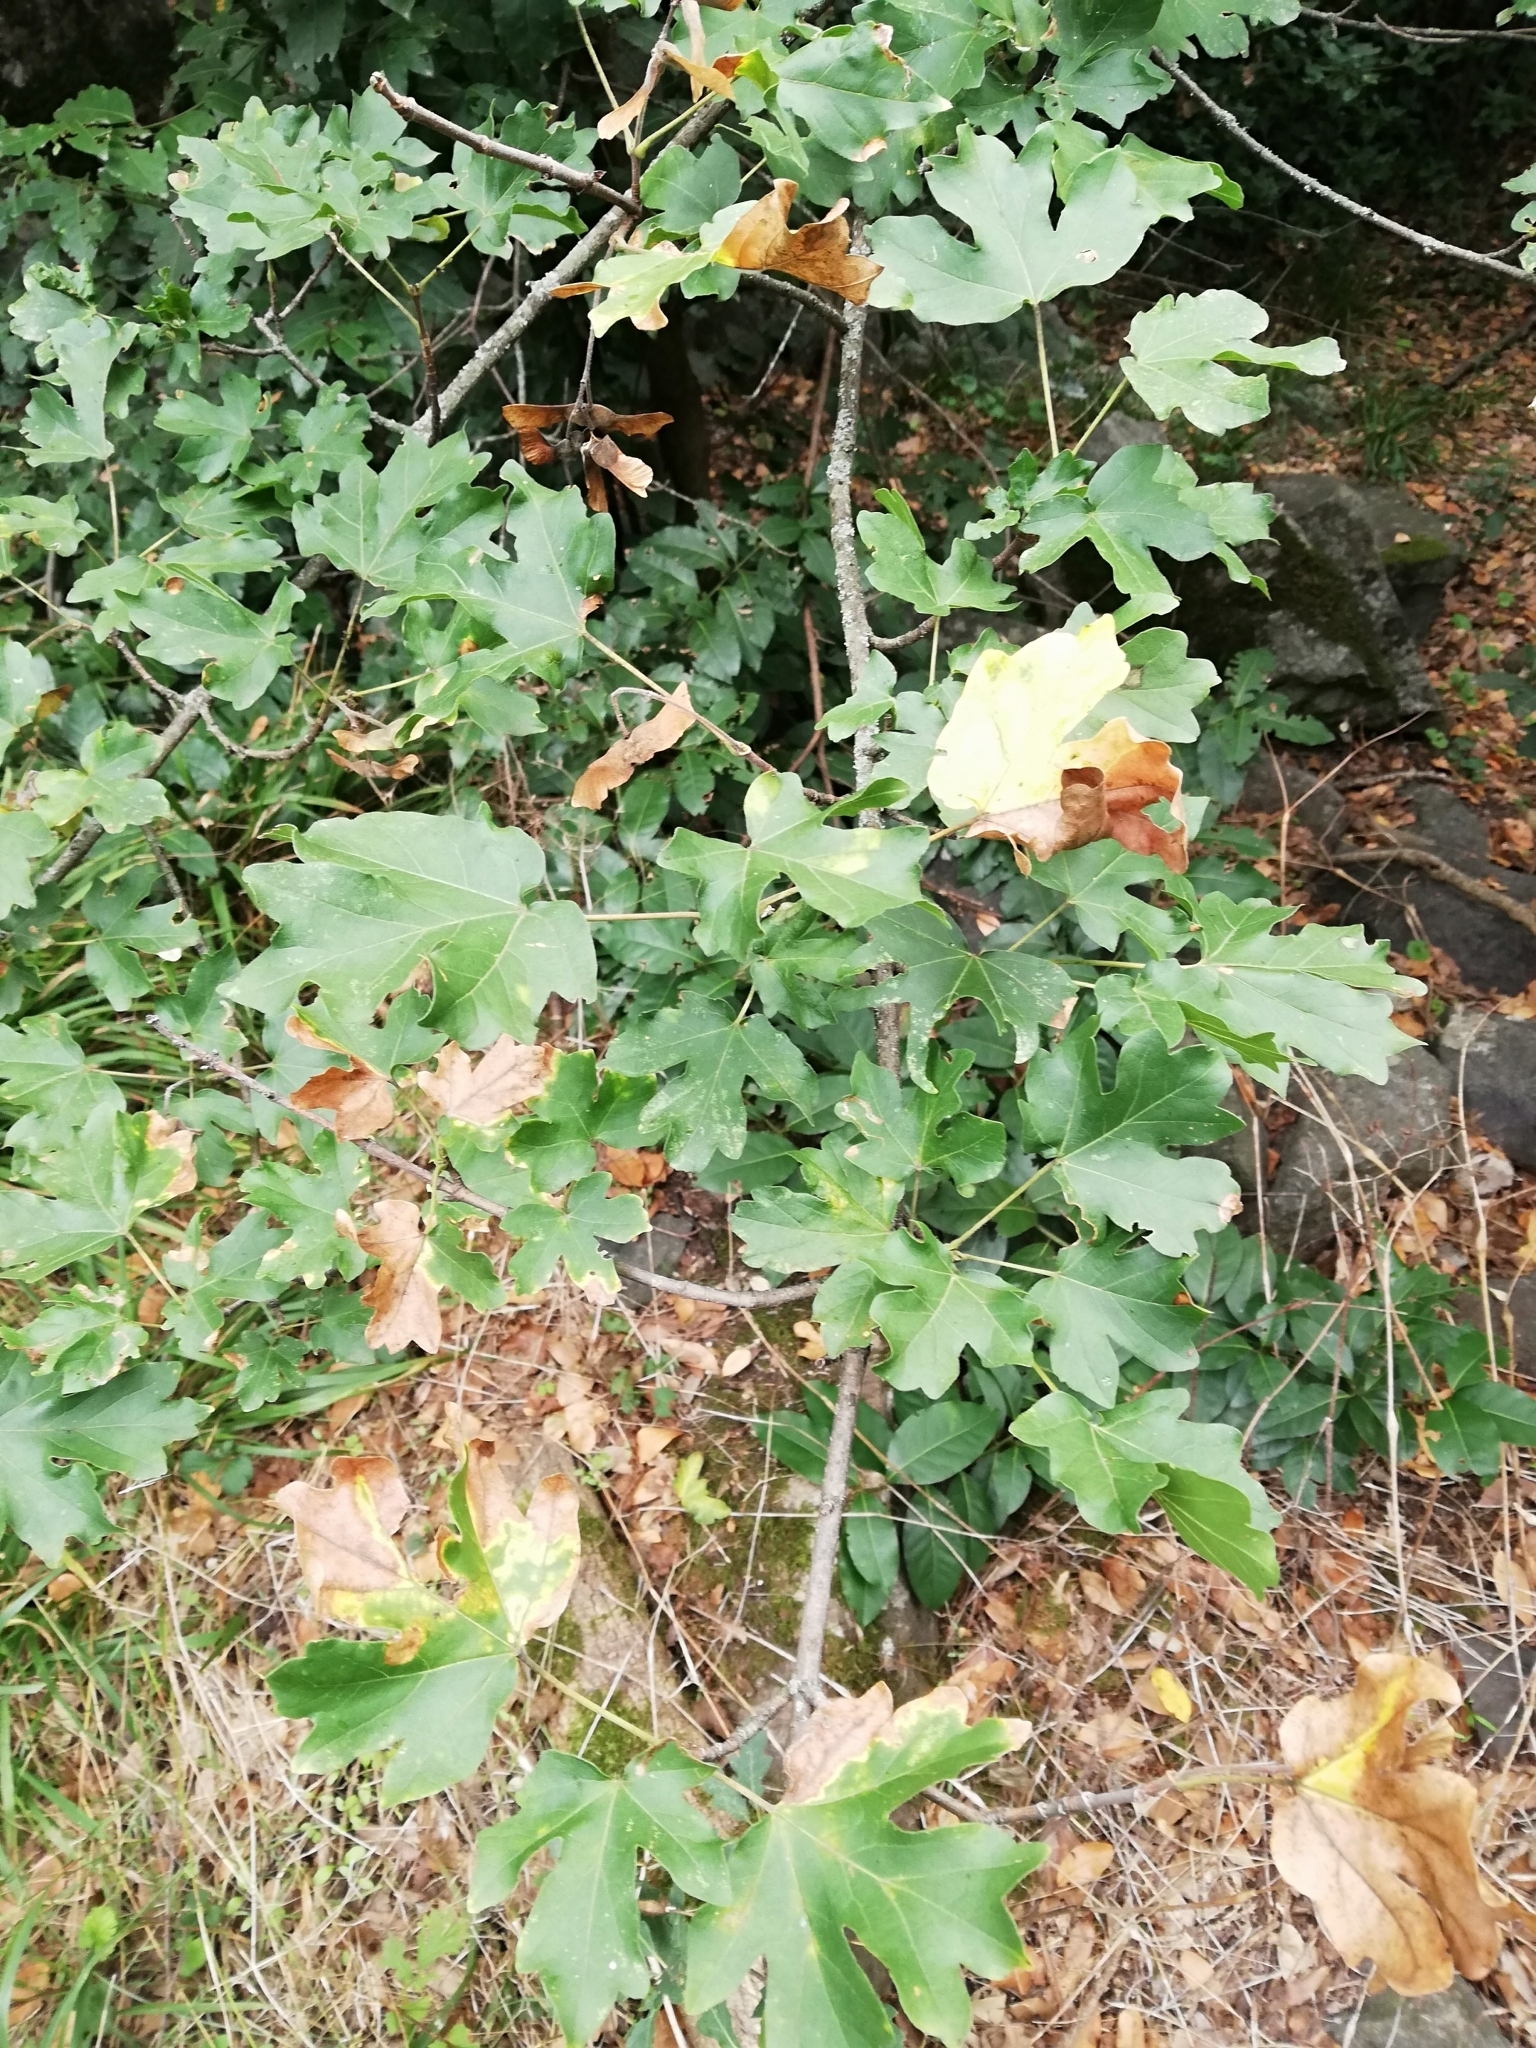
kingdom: Plantae
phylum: Tracheophyta
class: Magnoliopsida
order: Sapindales
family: Sapindaceae
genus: Acer
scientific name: Acer campestre
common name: Field maple
